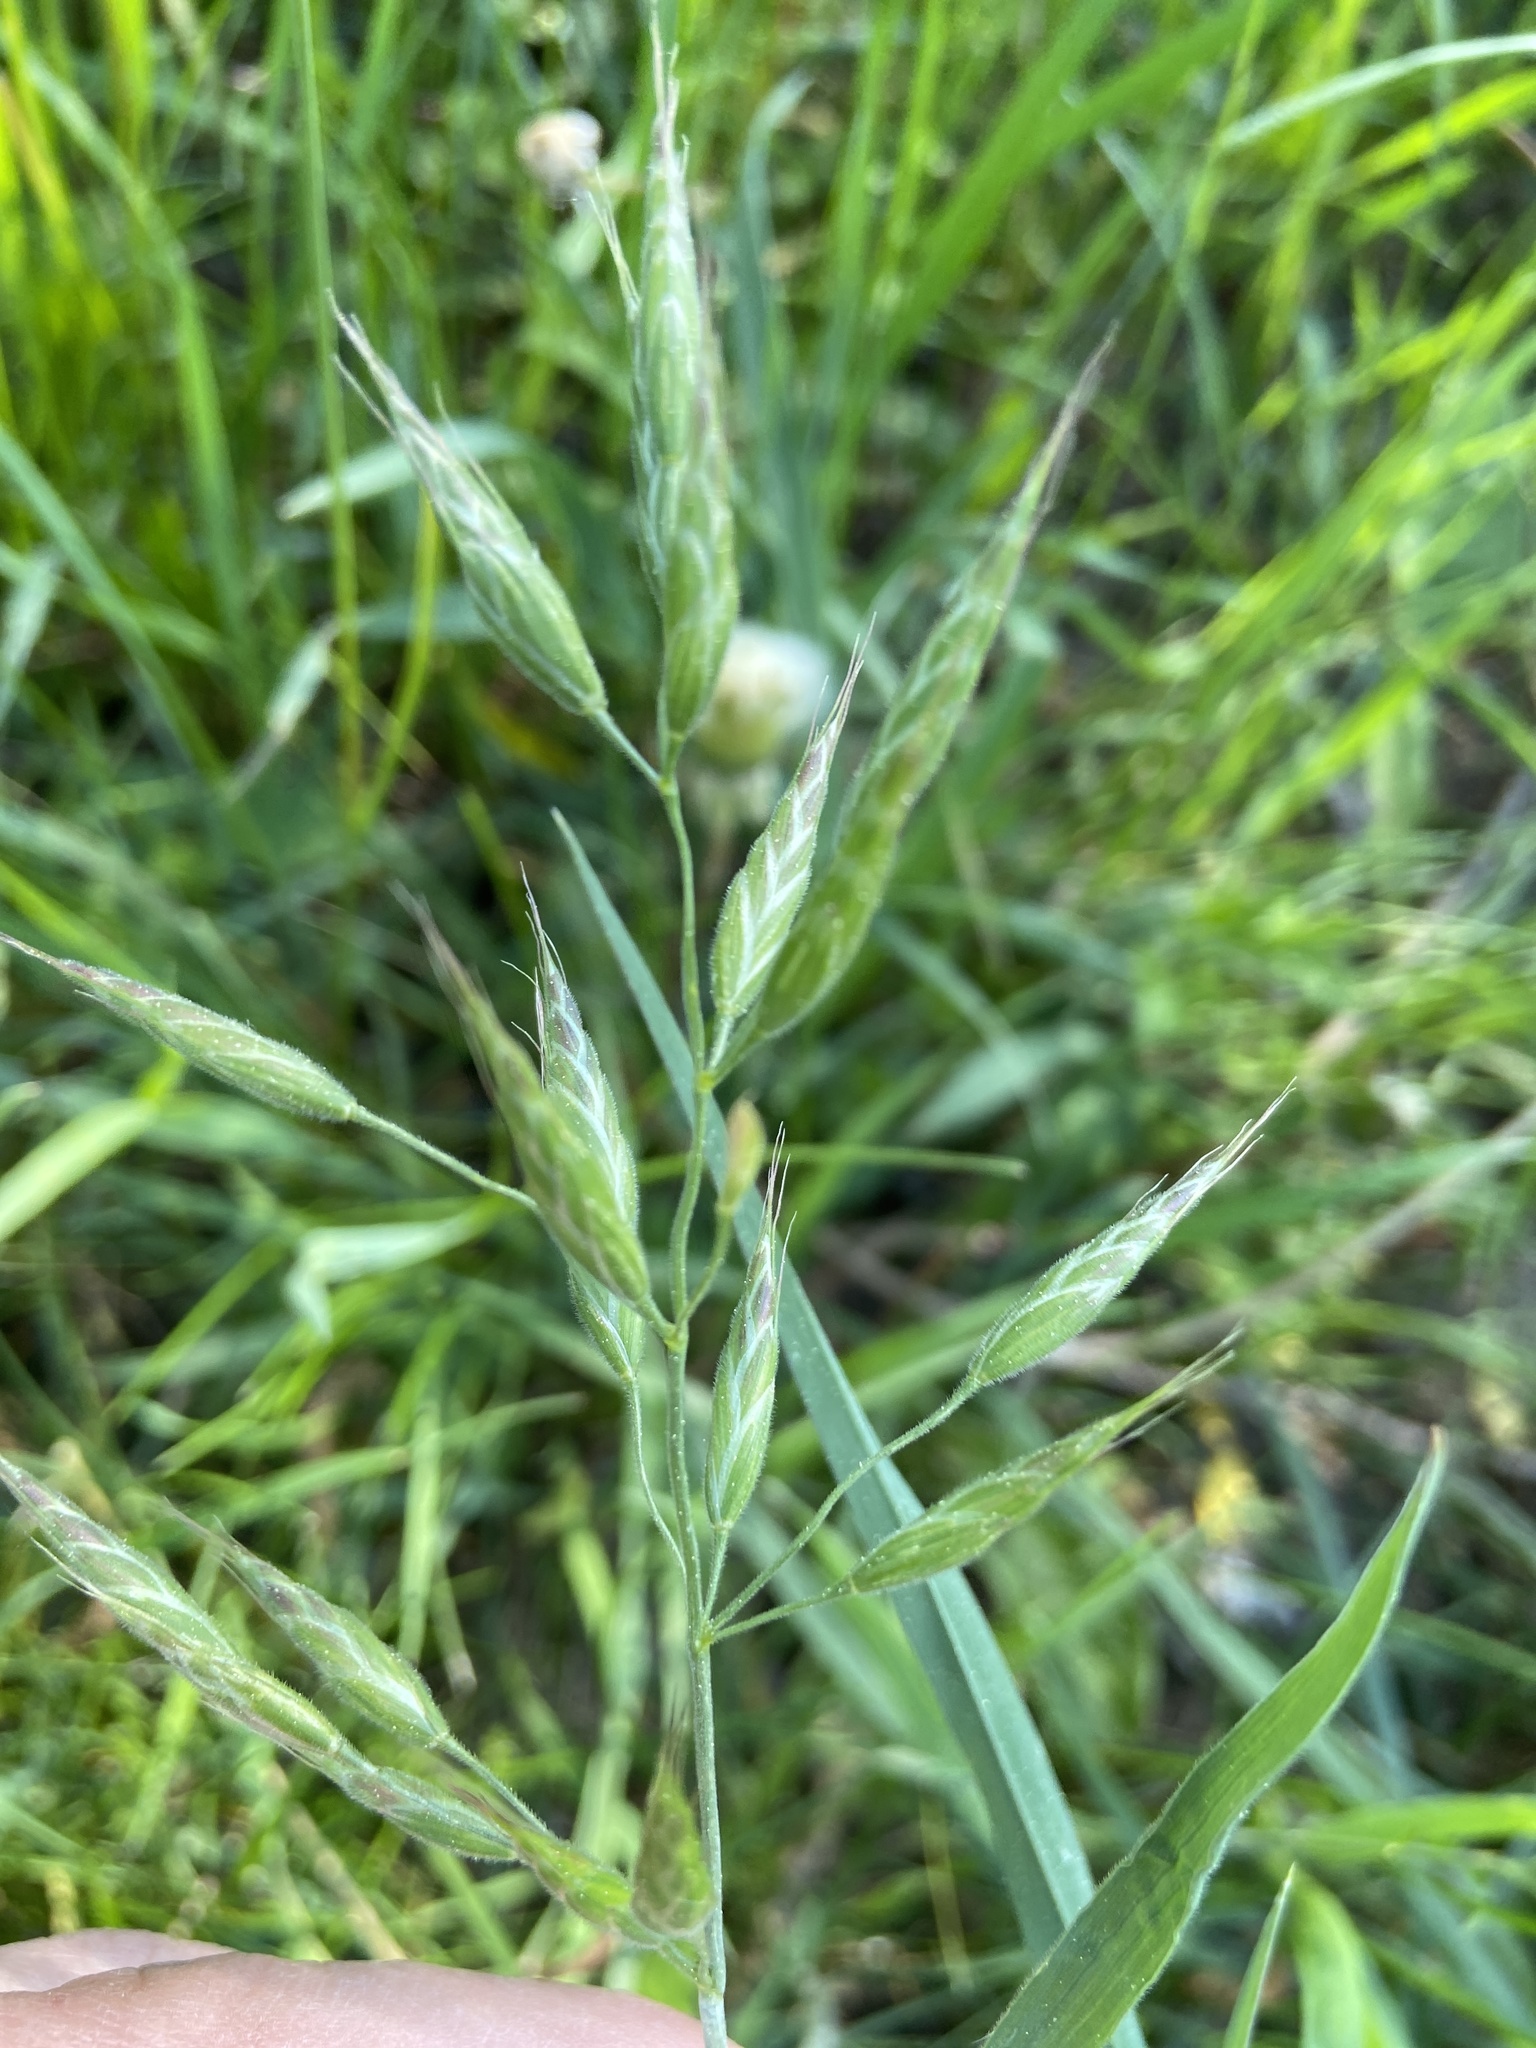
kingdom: Plantae
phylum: Tracheophyta
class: Liliopsida
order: Poales
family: Poaceae
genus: Bromus
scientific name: Bromus hordeaceus
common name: Soft brome
